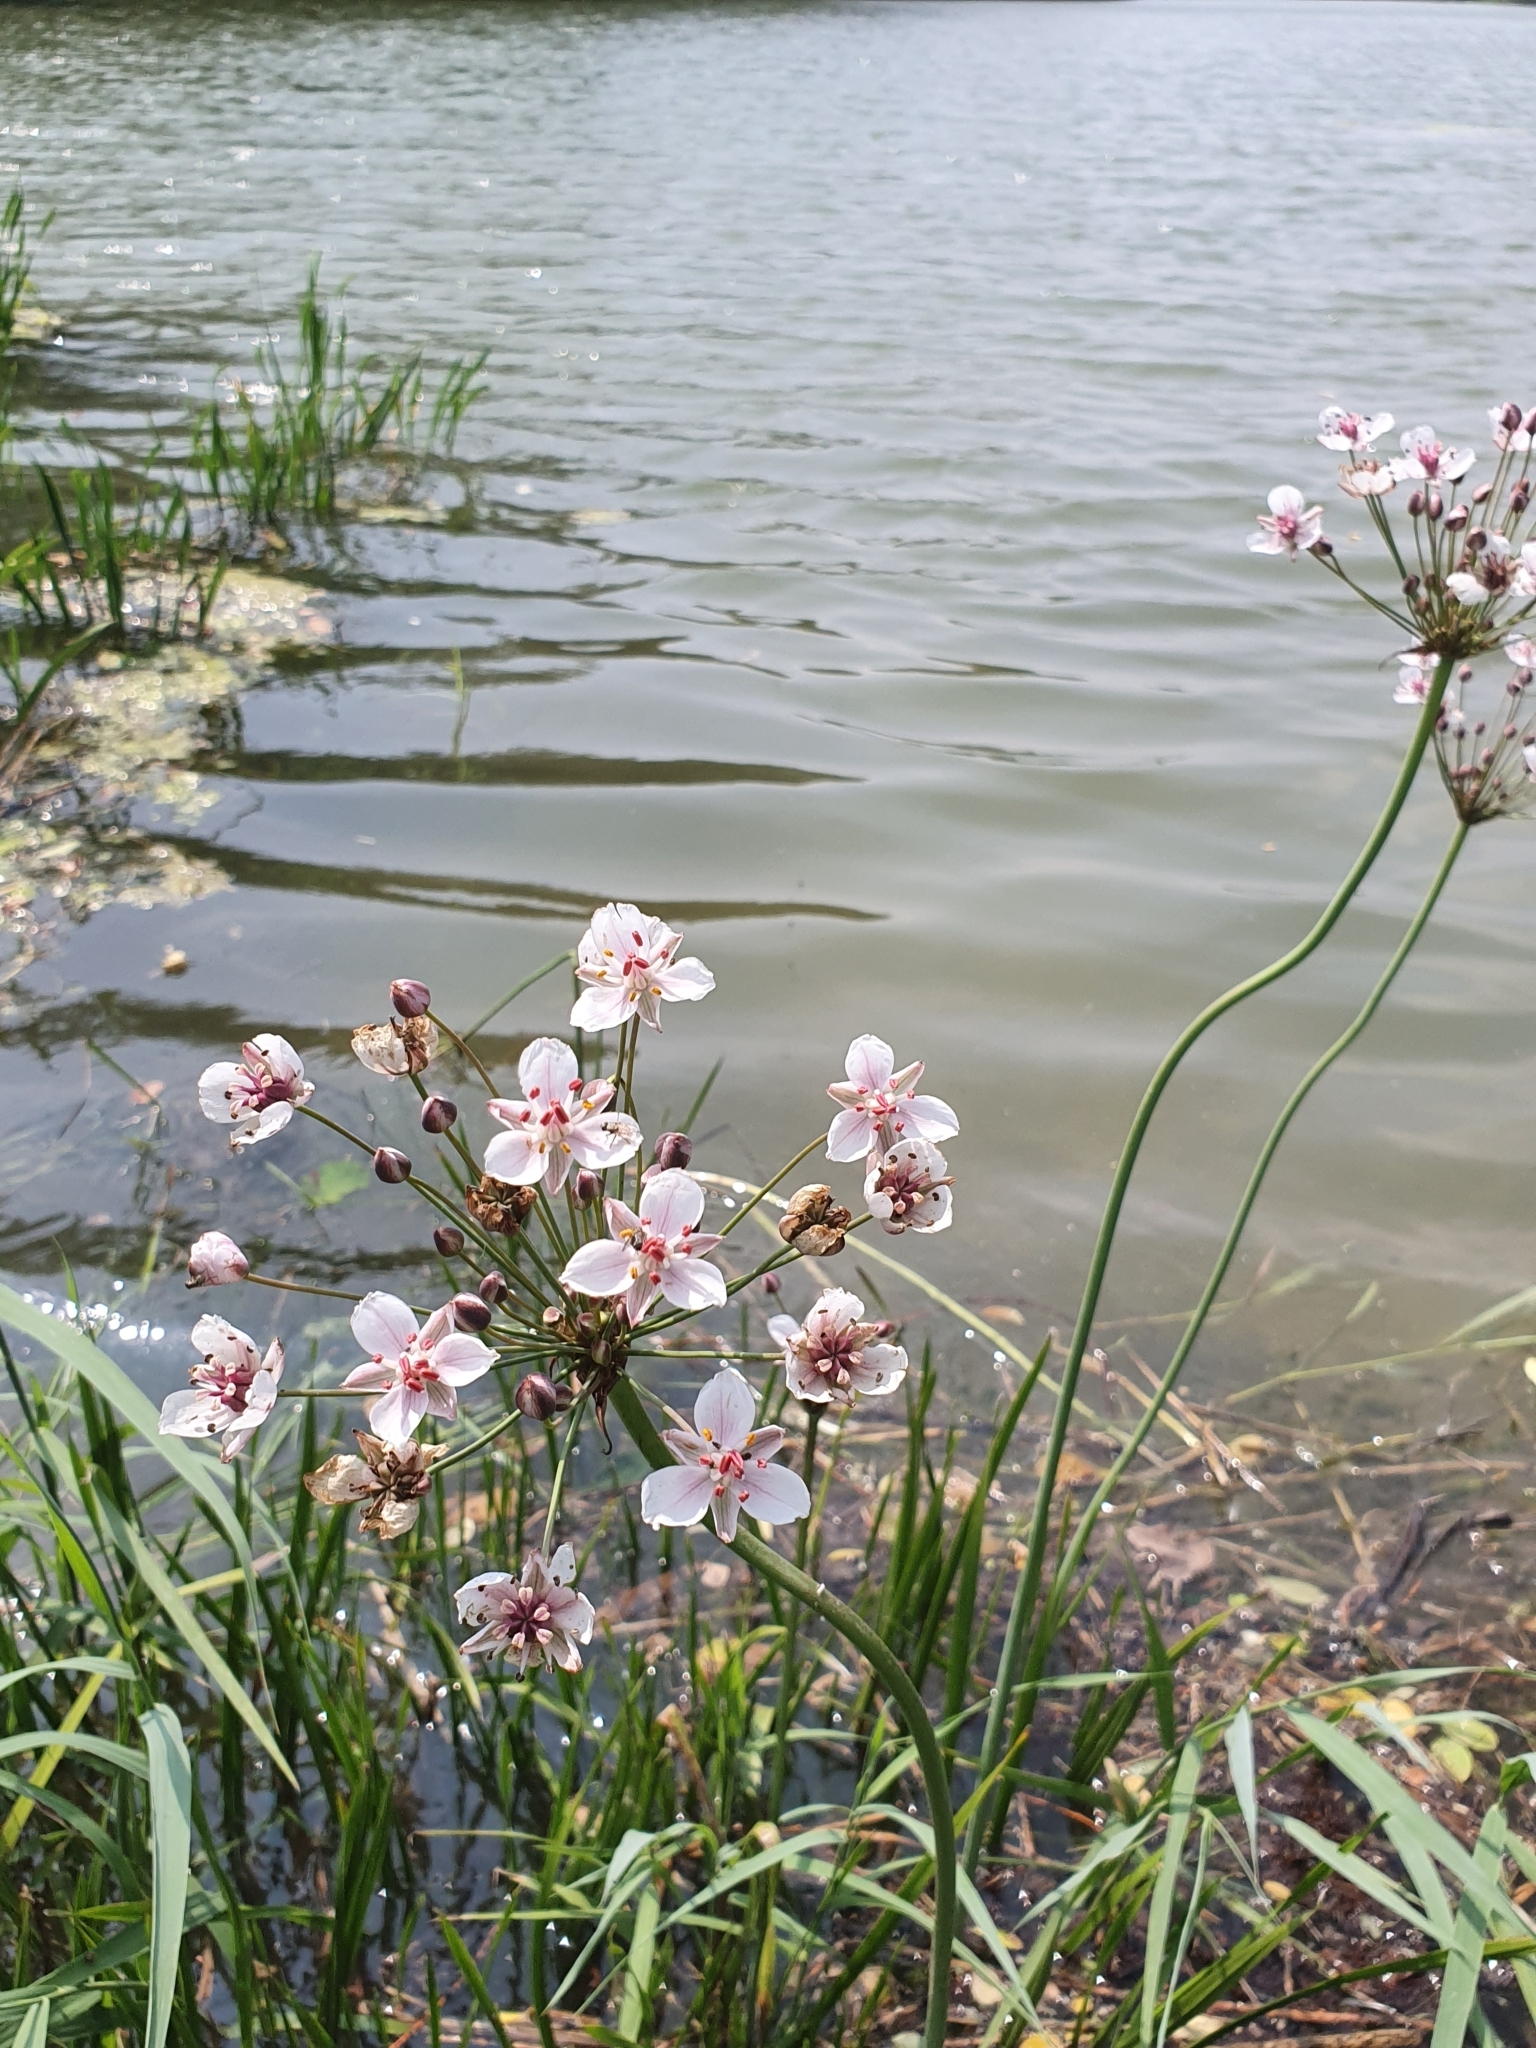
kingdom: Plantae
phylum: Tracheophyta
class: Liliopsida
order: Alismatales
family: Butomaceae
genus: Butomus
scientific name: Butomus umbellatus
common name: Flowering-rush
